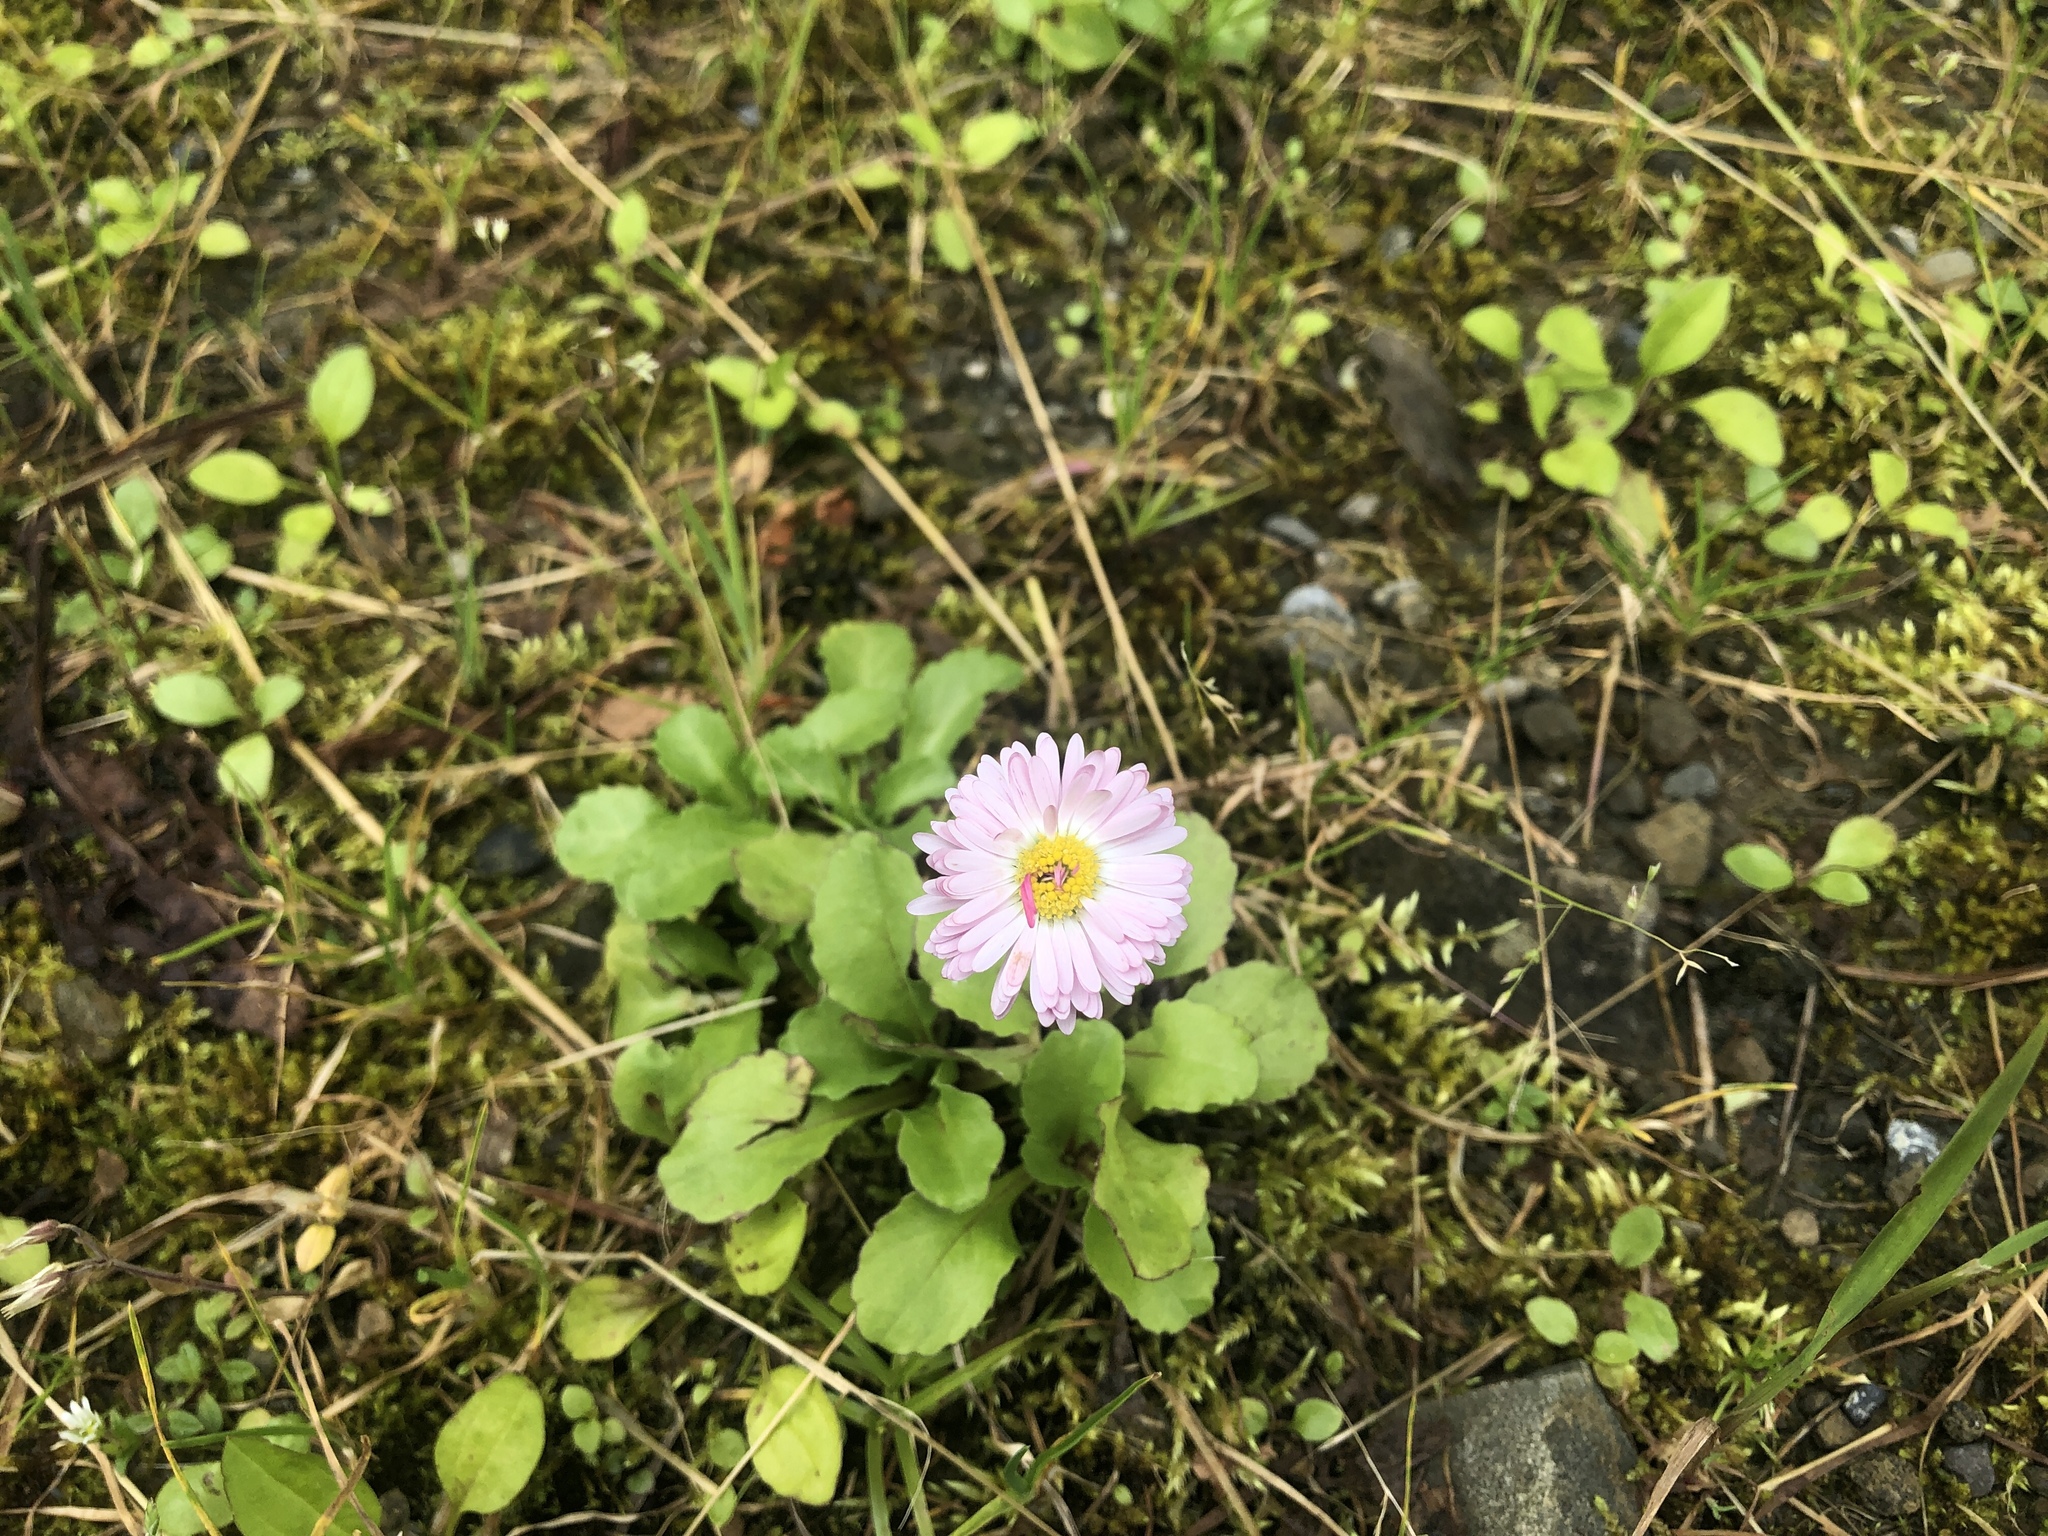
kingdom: Plantae
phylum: Tracheophyta
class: Magnoliopsida
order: Asterales
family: Asteraceae
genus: Bellis
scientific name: Bellis perennis
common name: Lawndaisy
